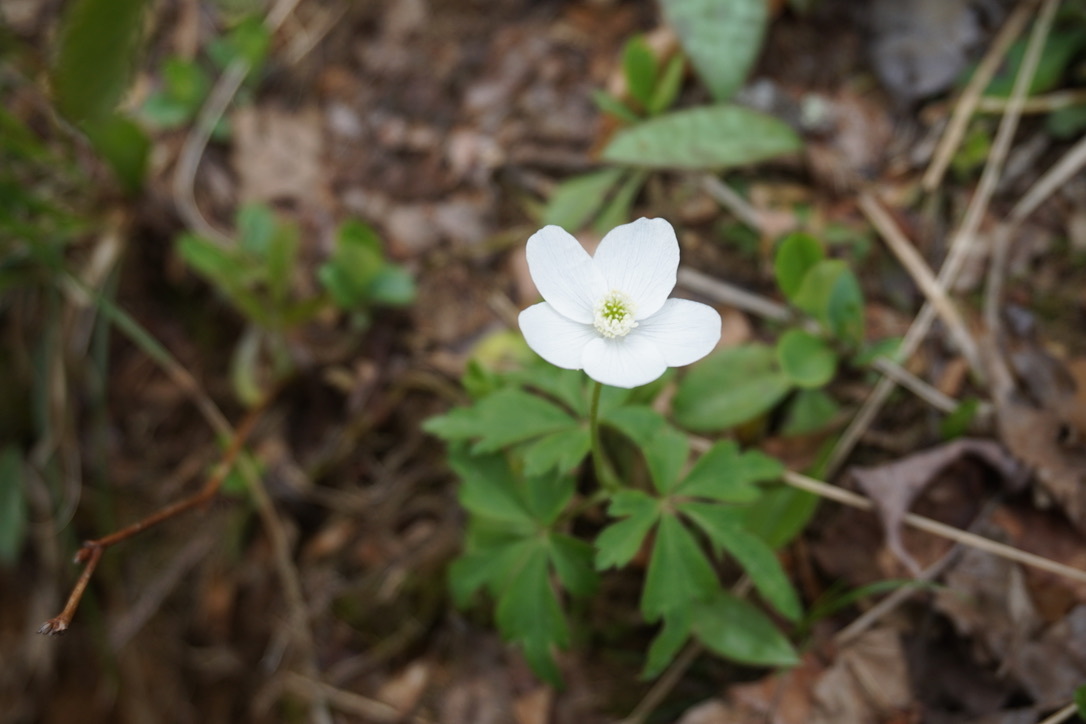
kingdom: Plantae
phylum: Tracheophyta
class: Magnoliopsida
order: Ranunculales
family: Ranunculaceae
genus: Anemone
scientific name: Anemone quinquefolia
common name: Wood anemone
